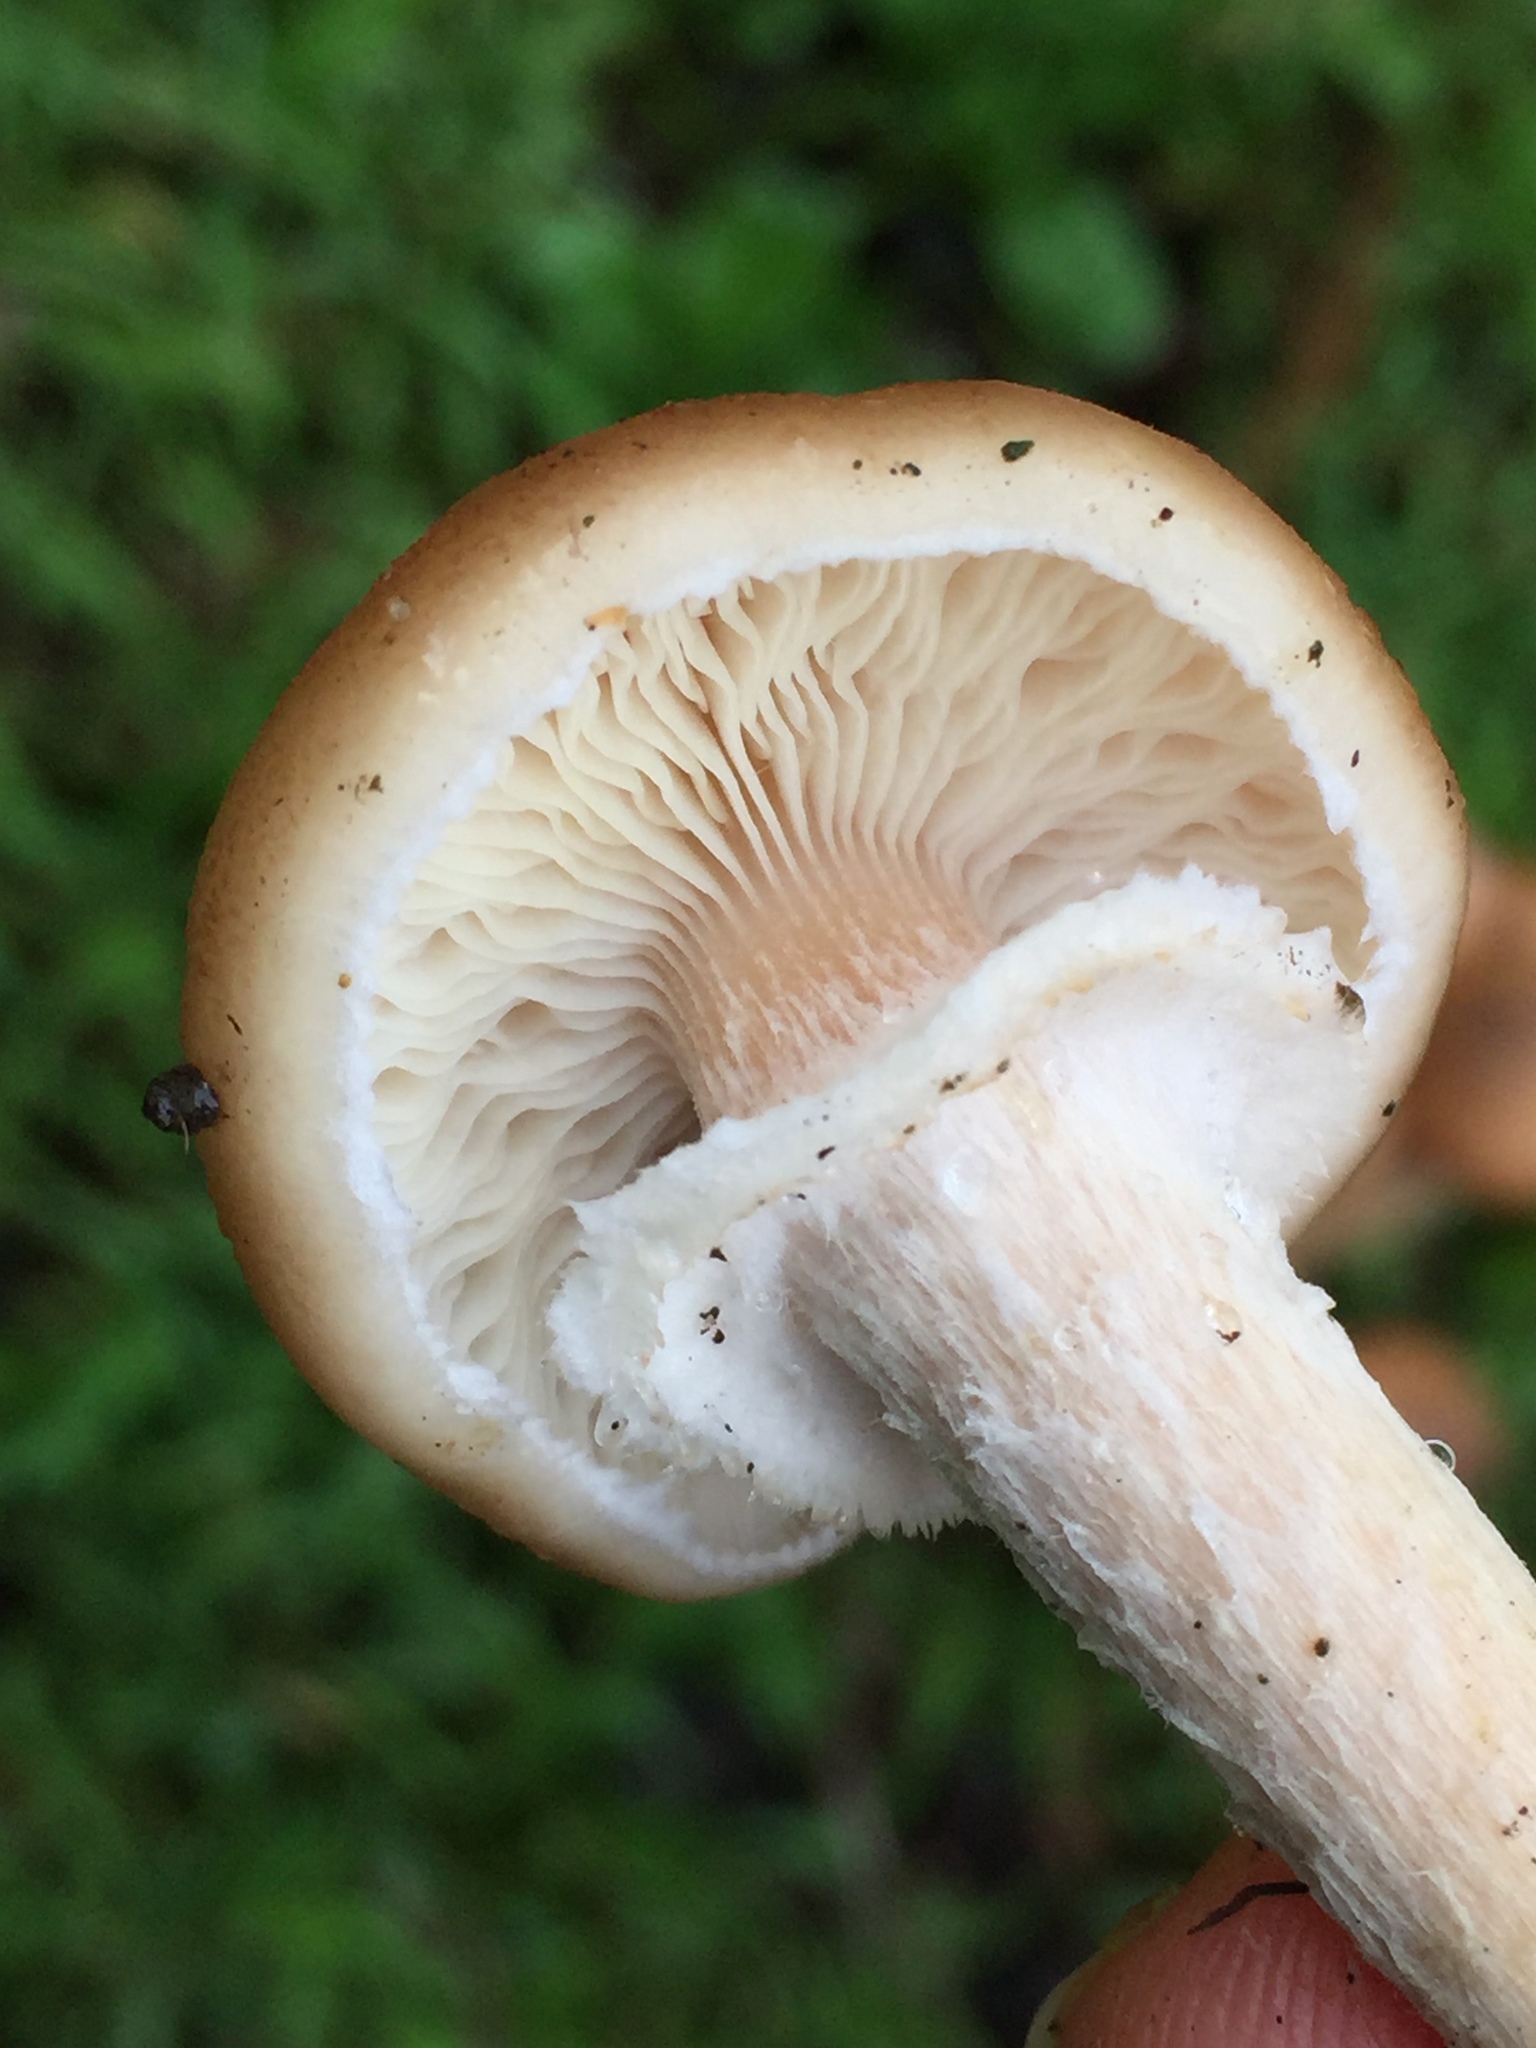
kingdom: Fungi
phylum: Basidiomycota
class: Agaricomycetes
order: Agaricales
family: Physalacriaceae
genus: Armillaria
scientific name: Armillaria mellea
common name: Honey fungus
